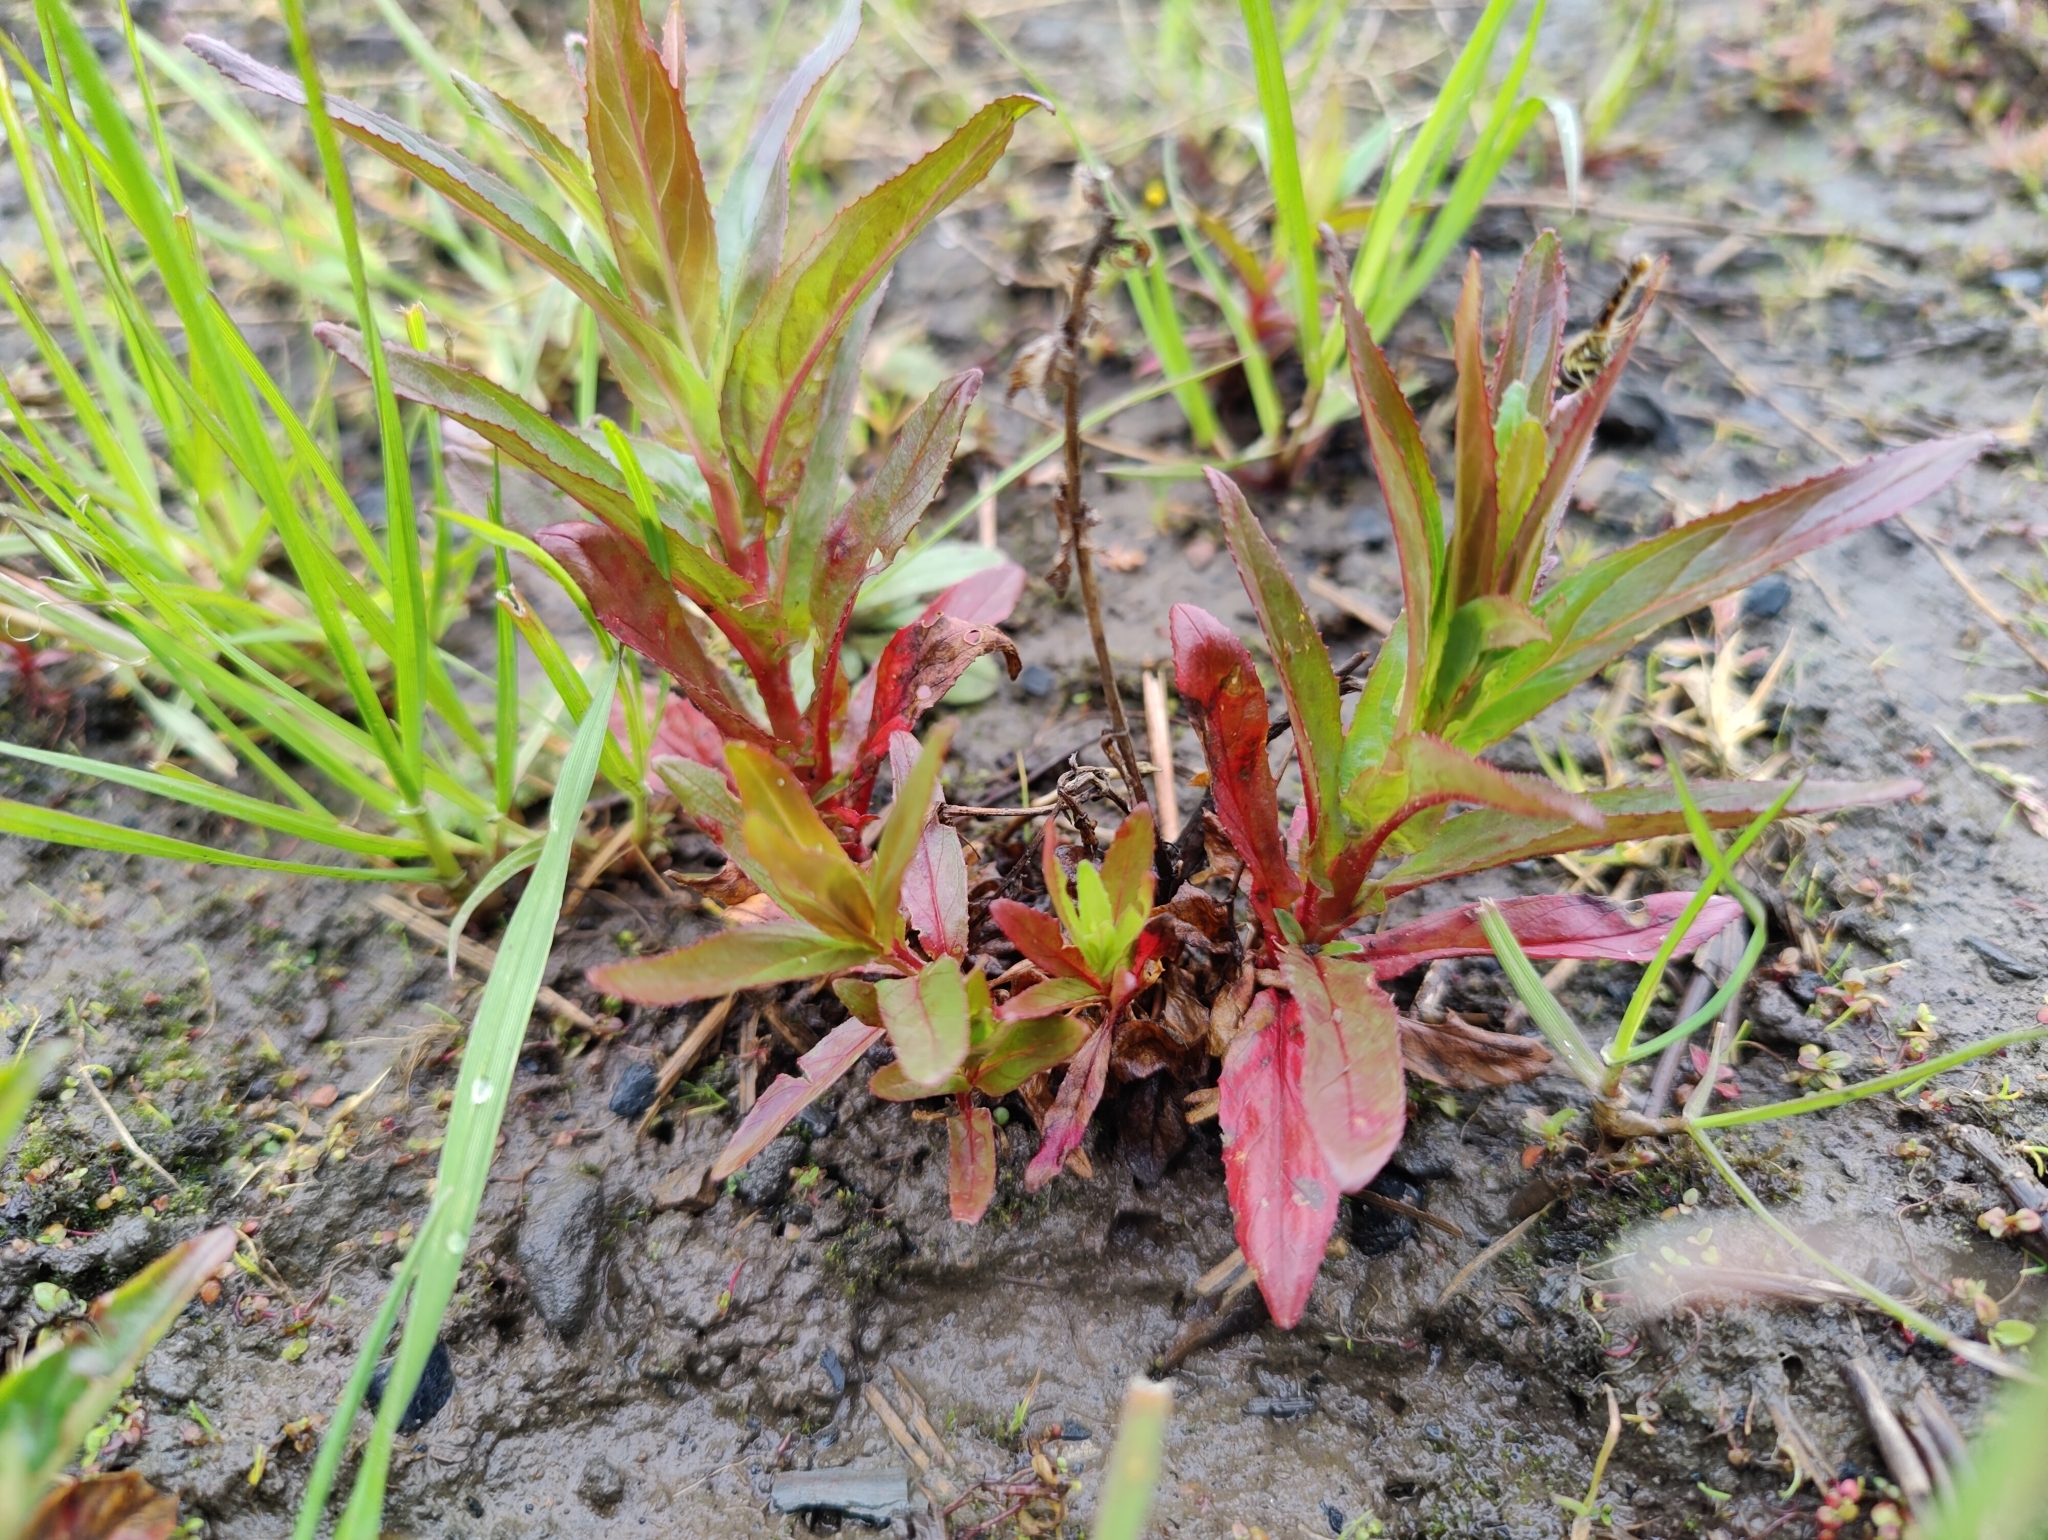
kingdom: Plantae
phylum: Tracheophyta
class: Magnoliopsida
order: Myrtales
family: Onagraceae
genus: Epilobium
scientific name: Epilobium montanum
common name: Broad-leaved willowherb
